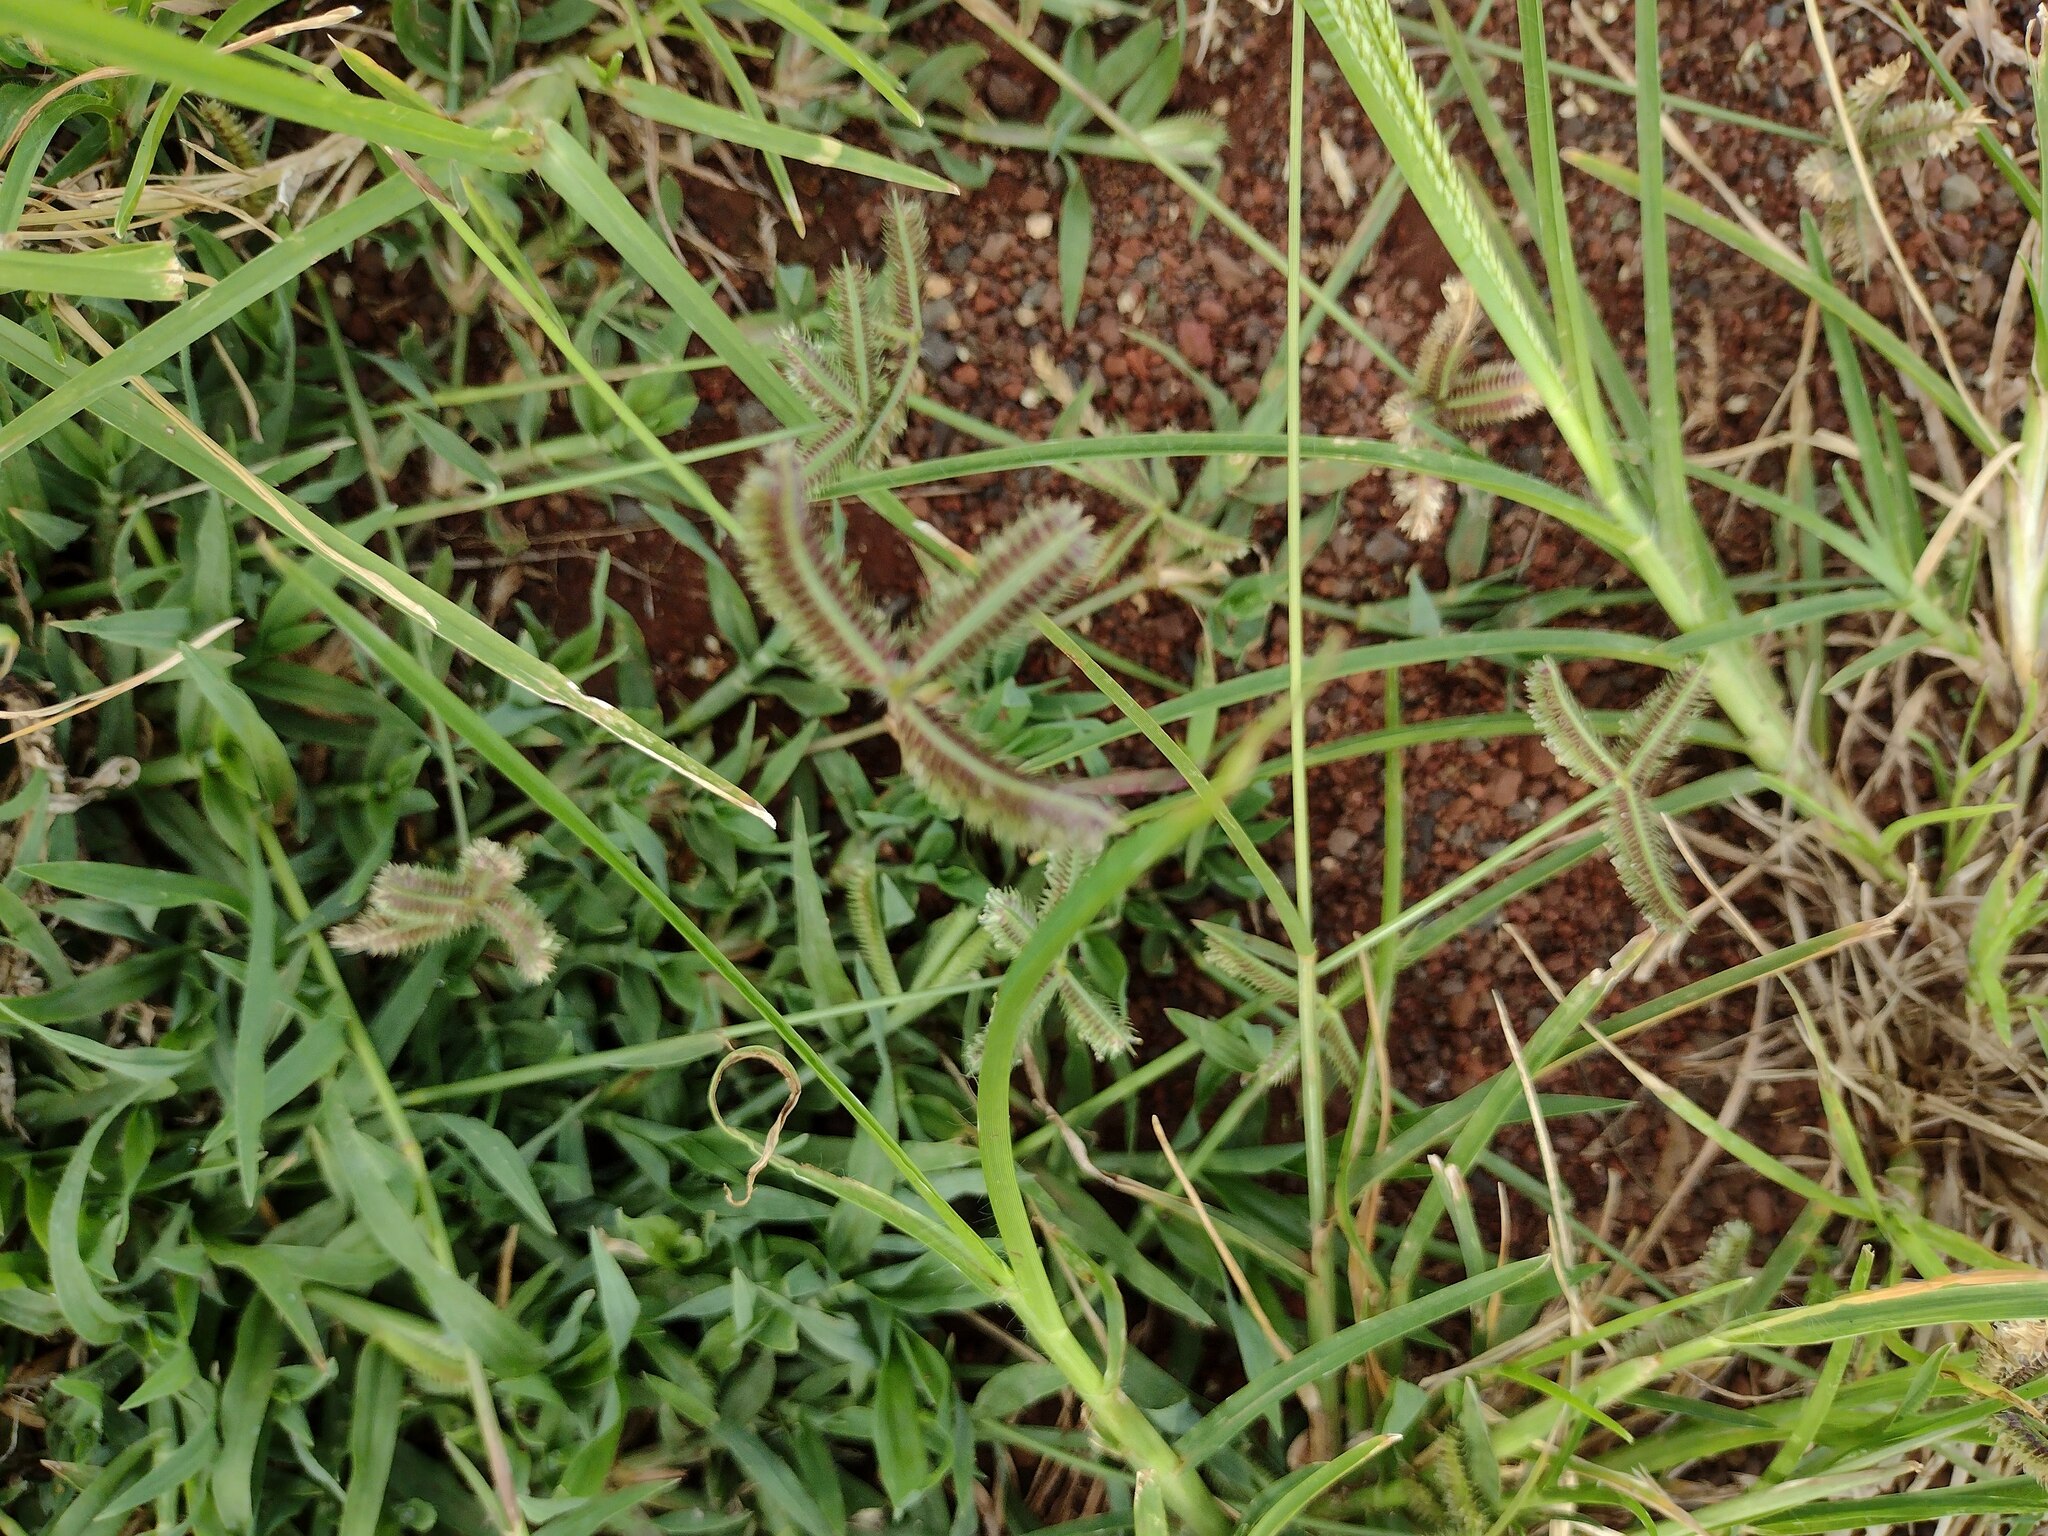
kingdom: Plantae
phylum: Tracheophyta
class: Liliopsida
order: Poales
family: Poaceae
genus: Dactyloctenium
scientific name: Dactyloctenium aegyptium
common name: Egyptian grass
